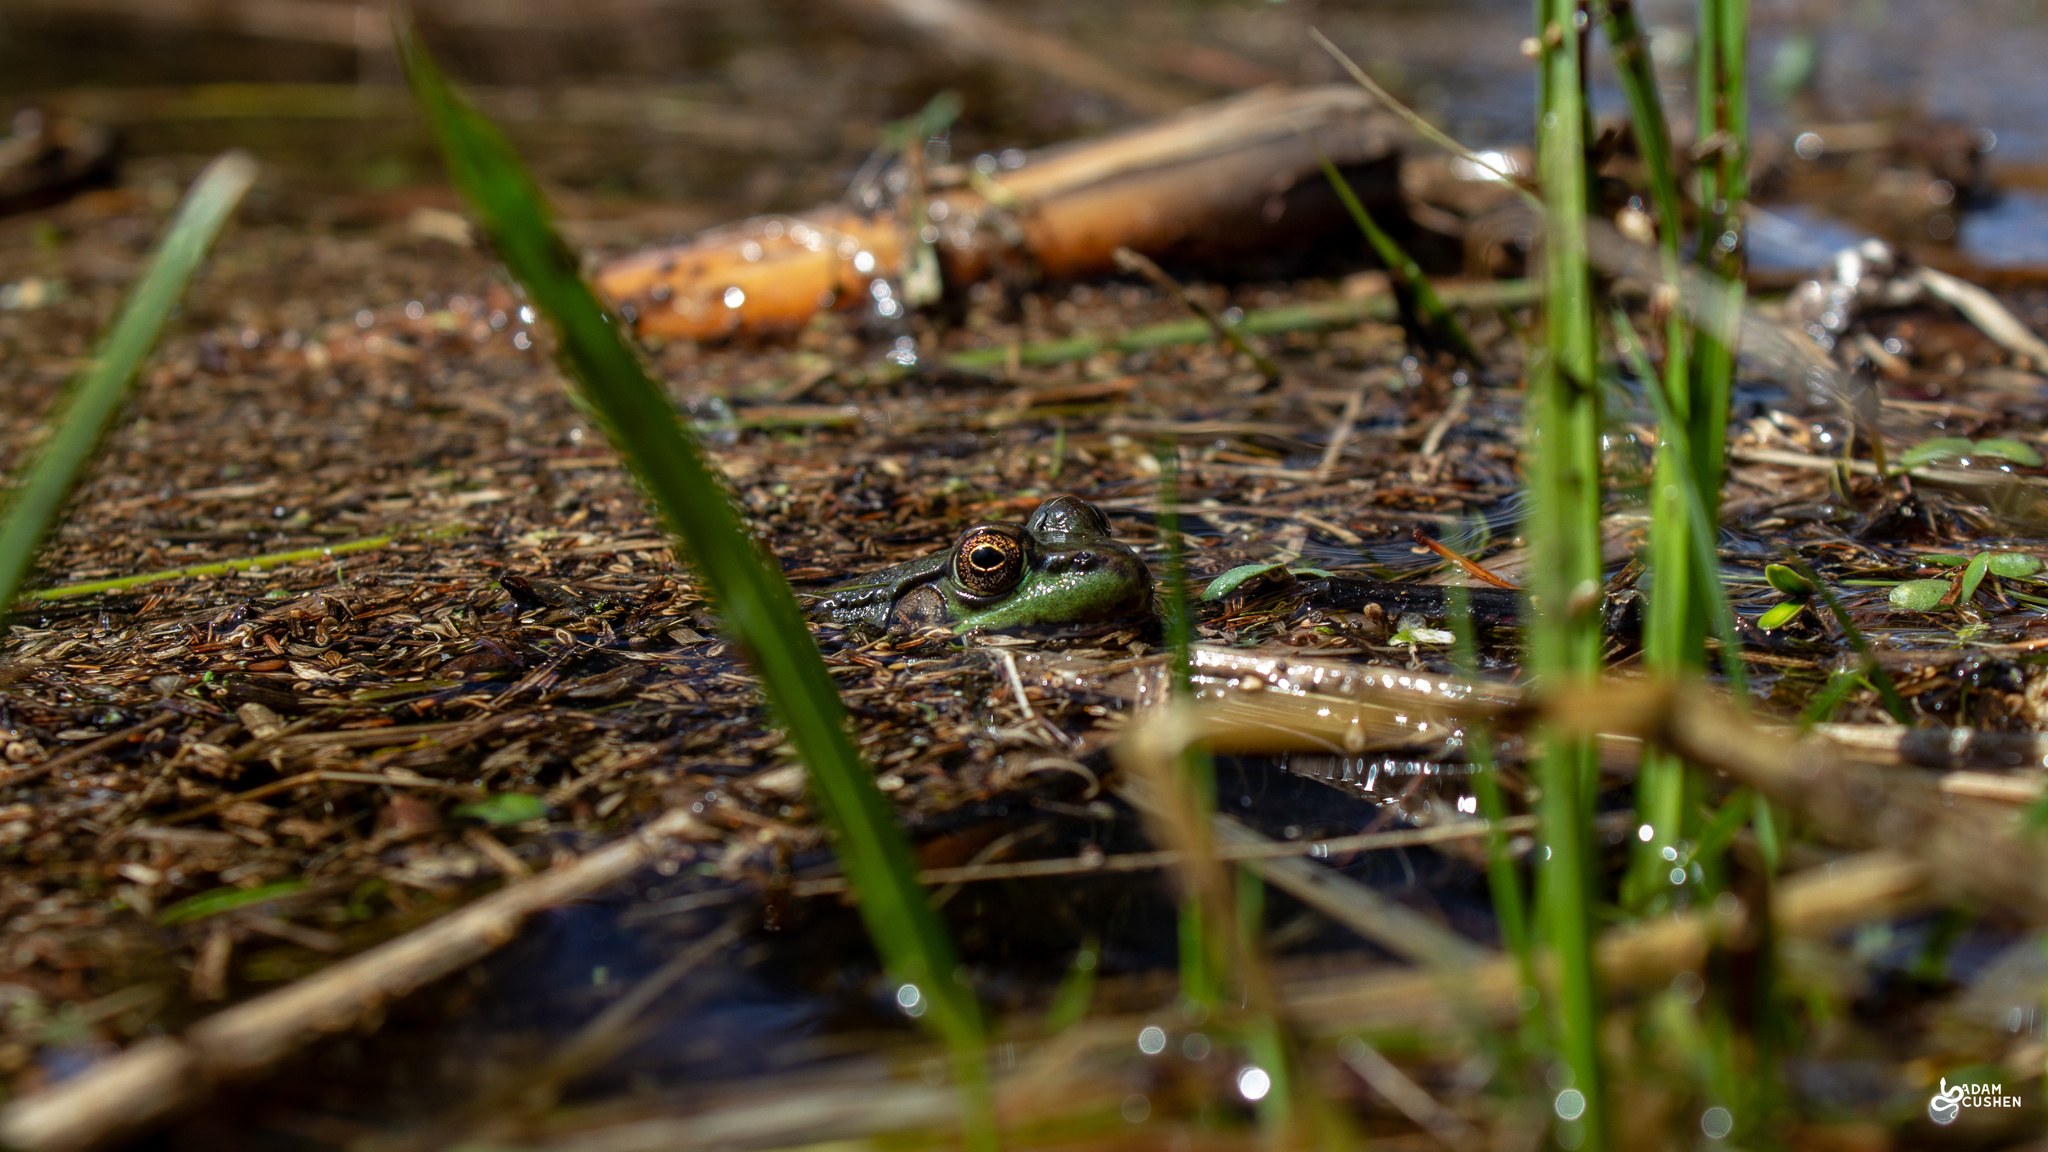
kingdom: Animalia
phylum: Chordata
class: Amphibia
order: Anura
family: Ranidae
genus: Lithobates
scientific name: Lithobates clamitans
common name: Green frog
